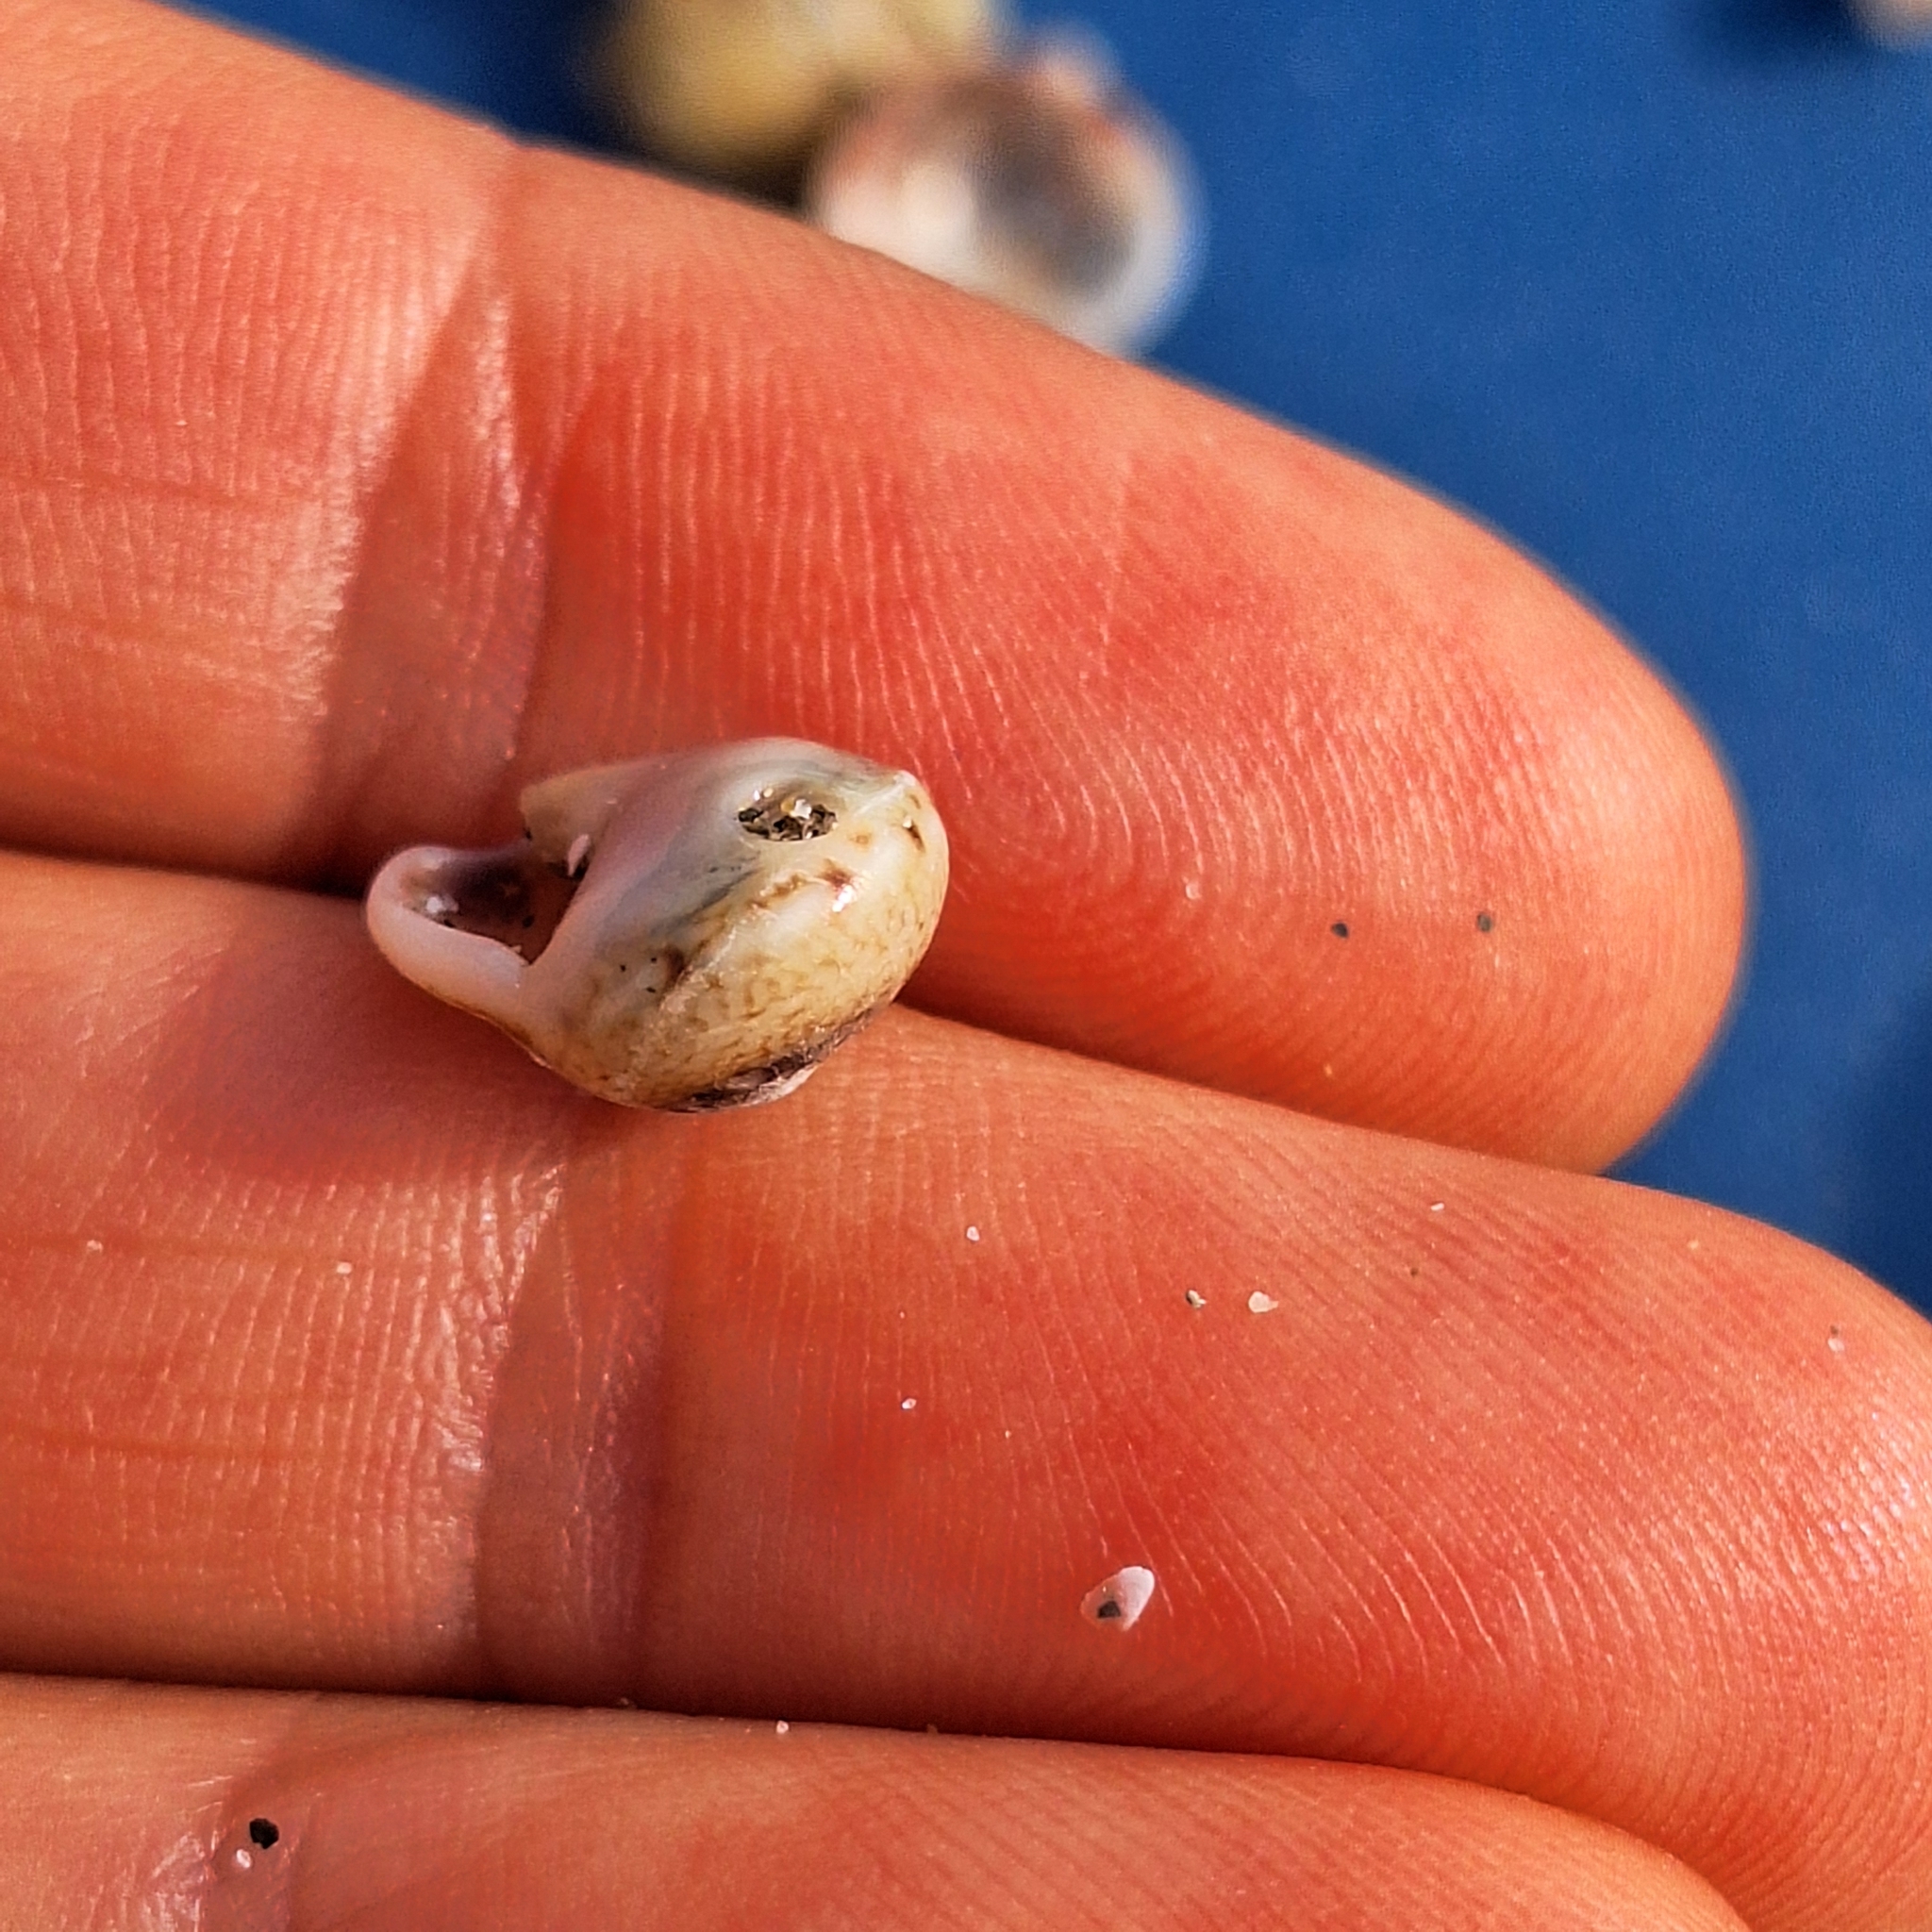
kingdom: Animalia
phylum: Mollusca
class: Gastropoda
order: Neogastropoda
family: Nassariidae
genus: Tritia
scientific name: Tritia neritea
